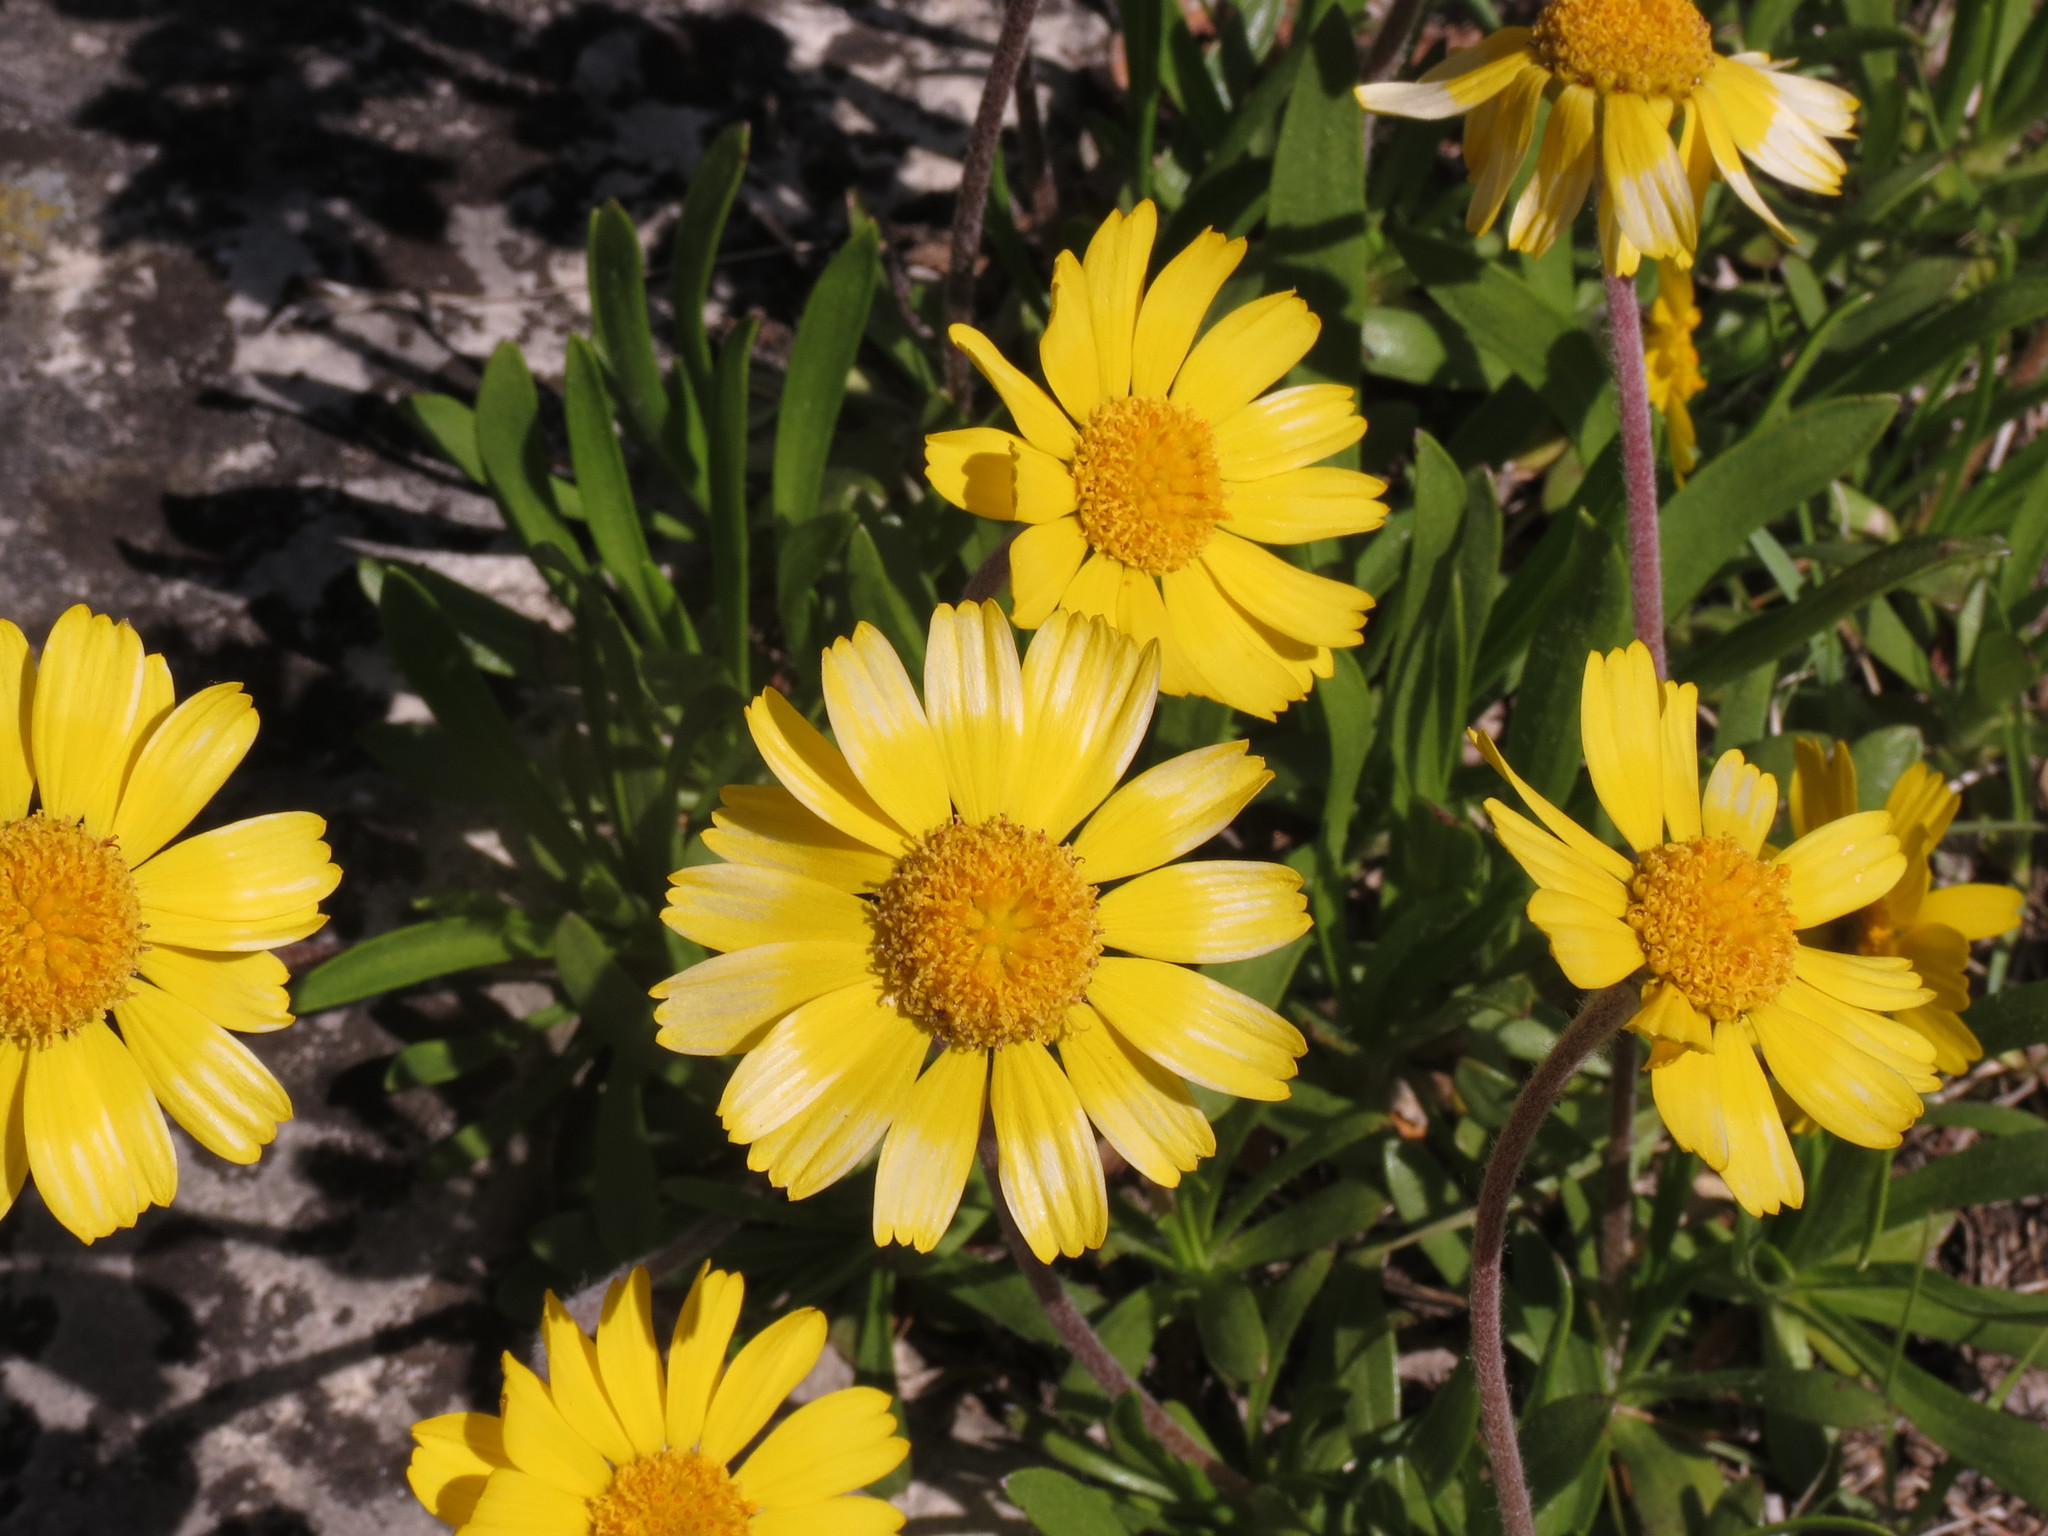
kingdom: Plantae
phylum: Tracheophyta
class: Magnoliopsida
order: Asterales
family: Asteraceae
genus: Tetraneuris
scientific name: Tetraneuris herbacea
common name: Lakeside daisy
